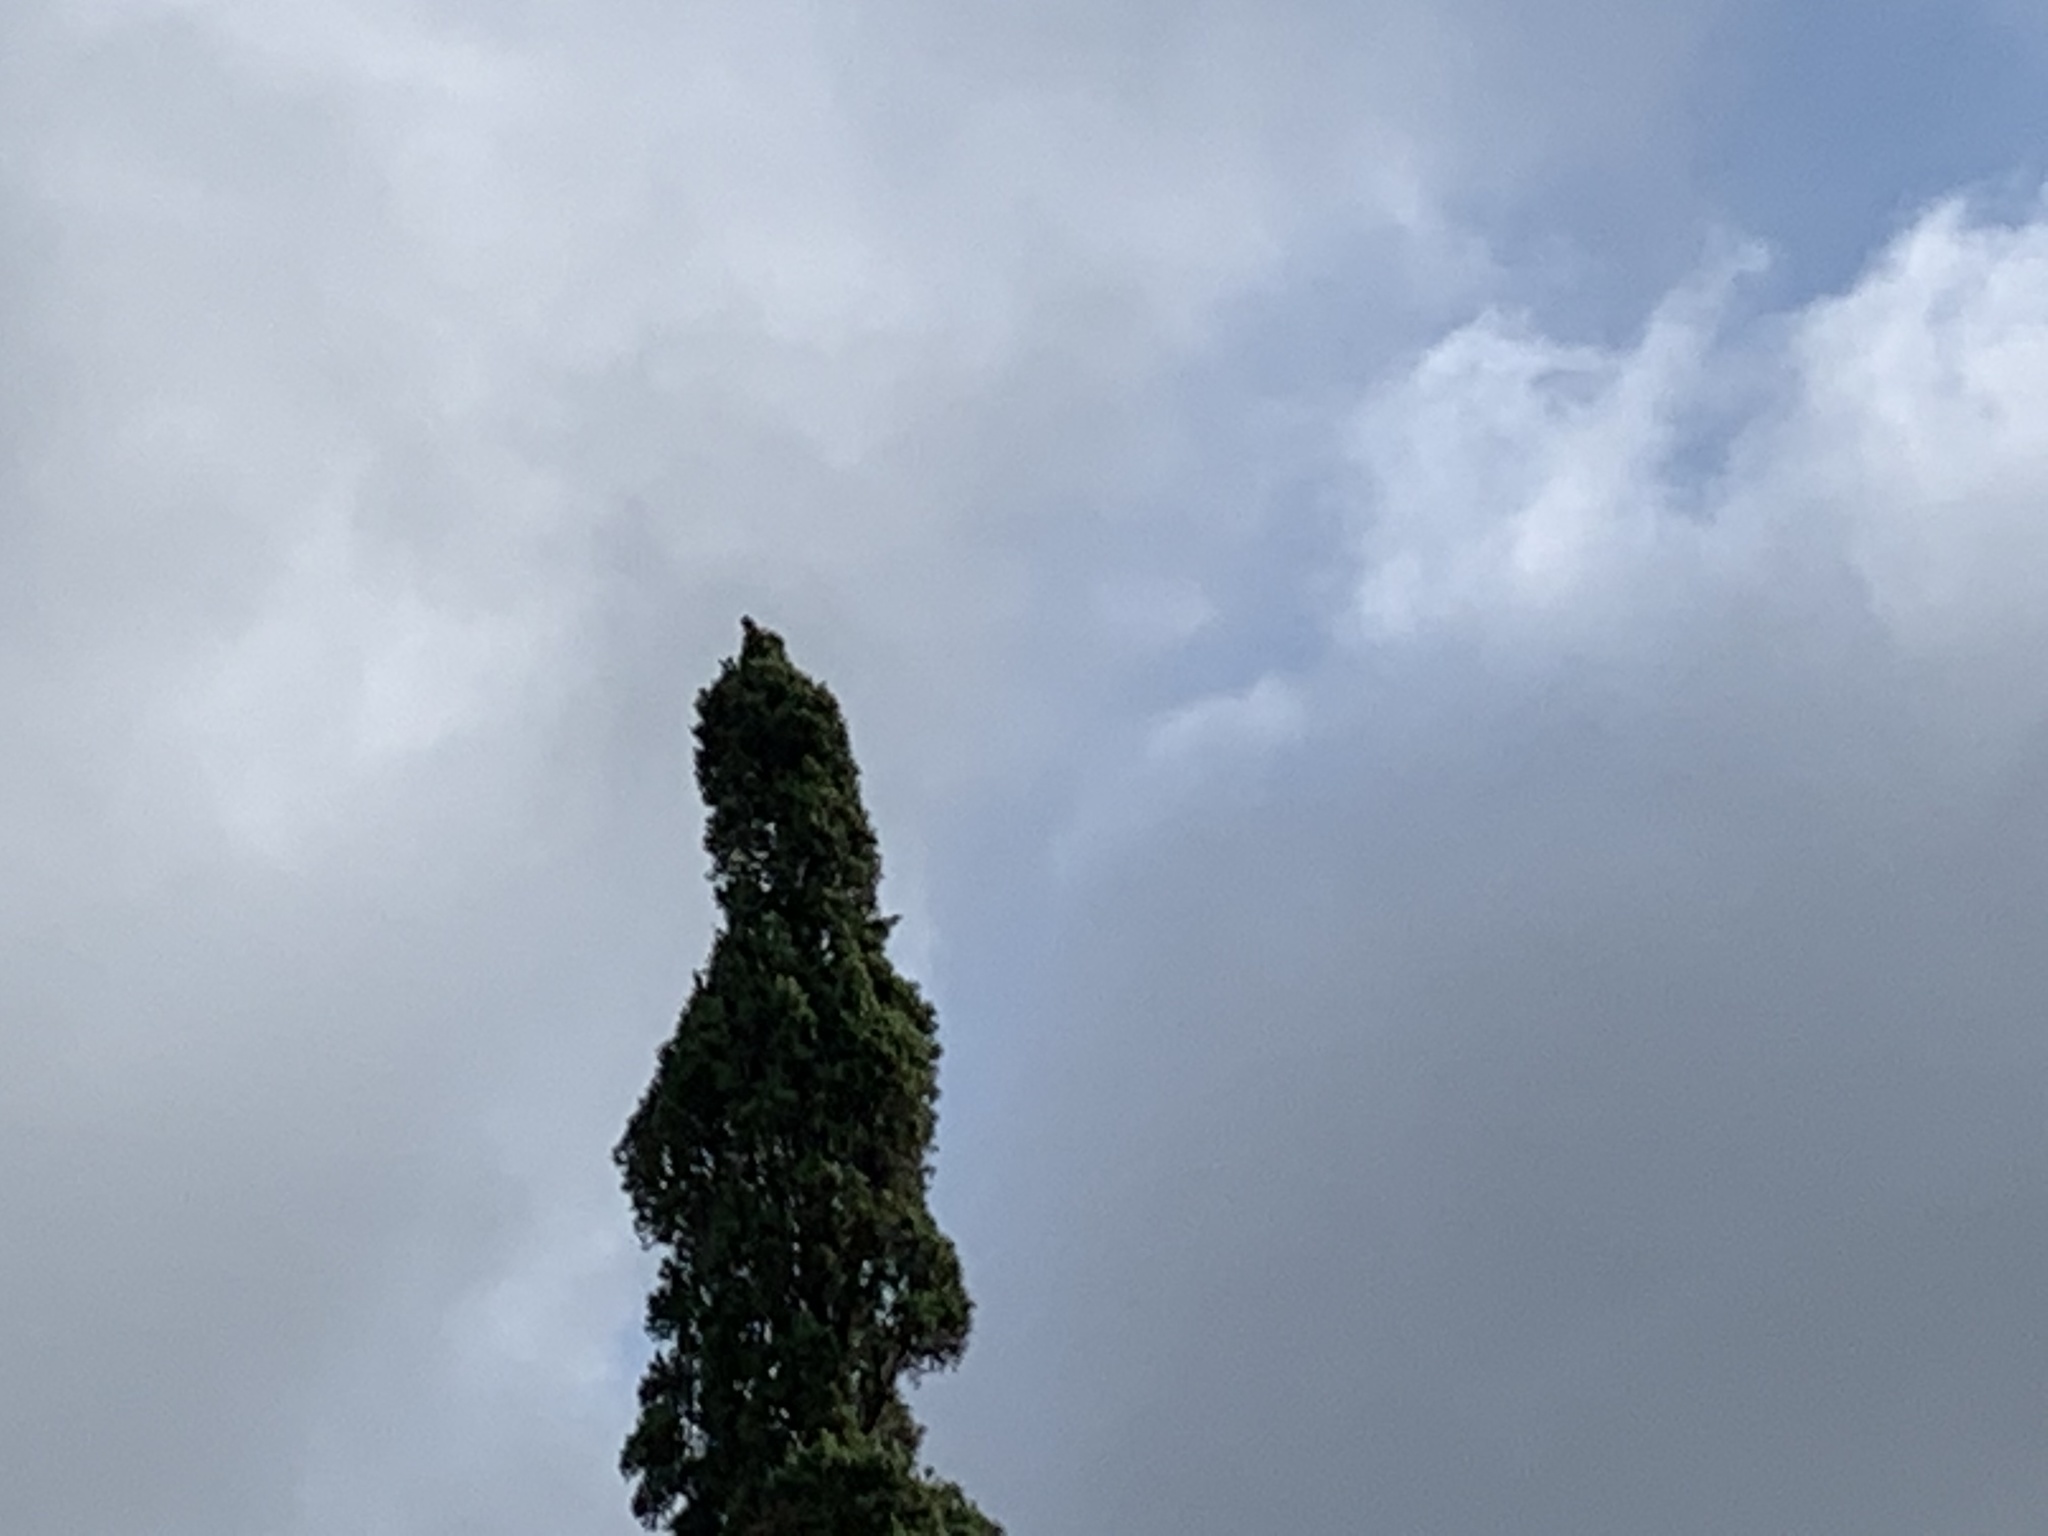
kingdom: Animalia
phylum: Chordata
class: Aves
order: Passeriformes
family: Mimidae
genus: Mimus
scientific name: Mimus polyglottos
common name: Northern mockingbird
